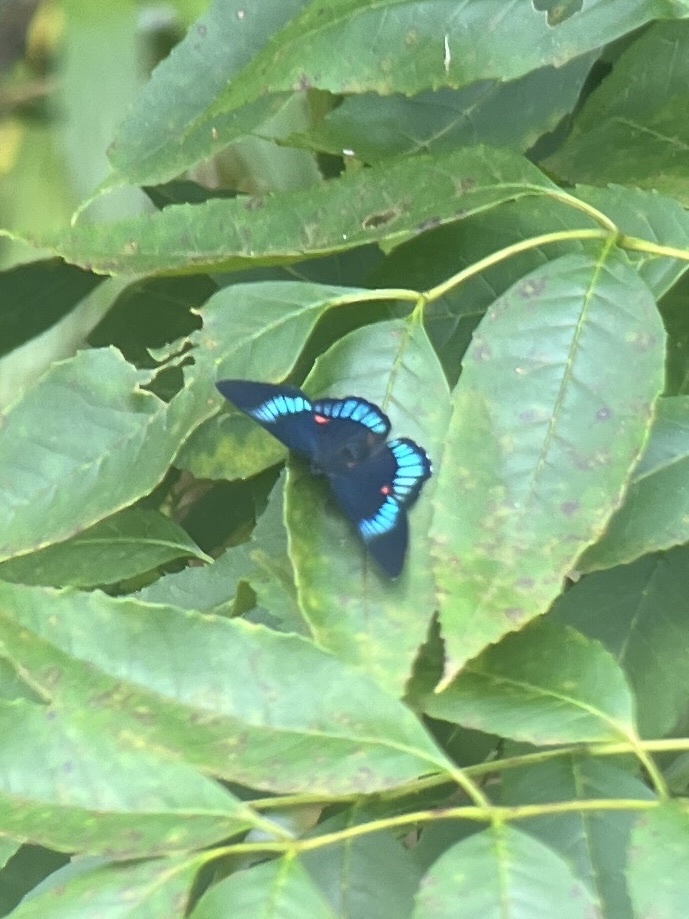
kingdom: Animalia
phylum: Arthropoda
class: Insecta
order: Lepidoptera
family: Lycaenidae
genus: Necyria
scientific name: Necyria bellona
